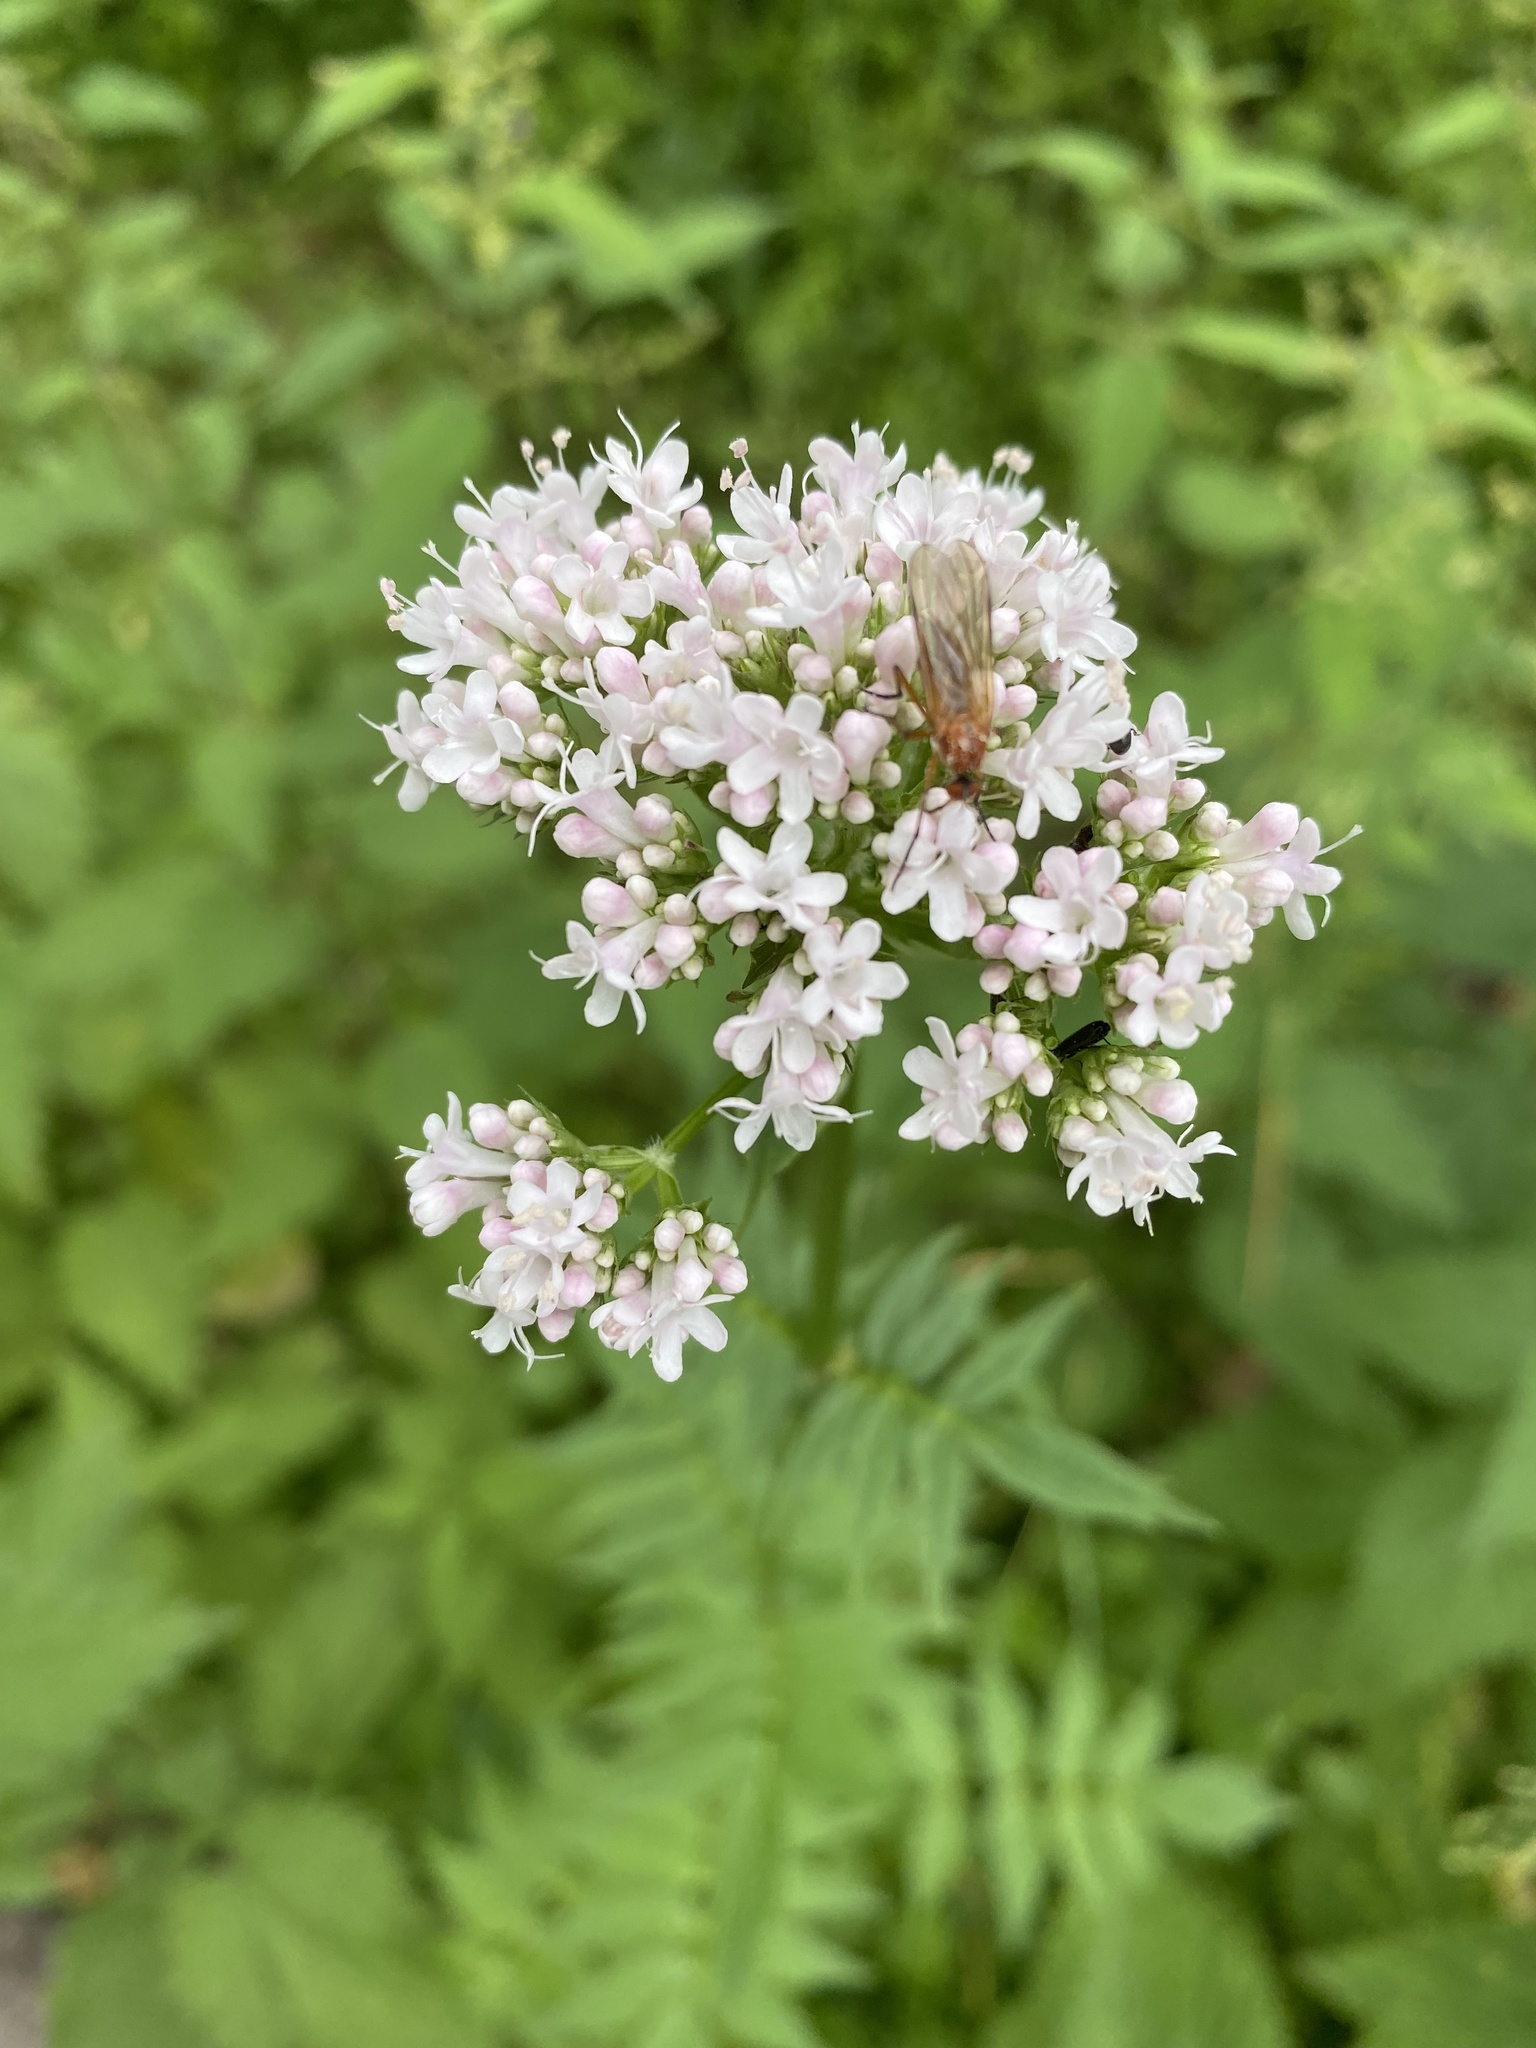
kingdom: Plantae
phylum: Tracheophyta
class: Magnoliopsida
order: Dipsacales
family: Caprifoliaceae
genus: Valeriana
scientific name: Valeriana officinalis
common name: Common valerian
